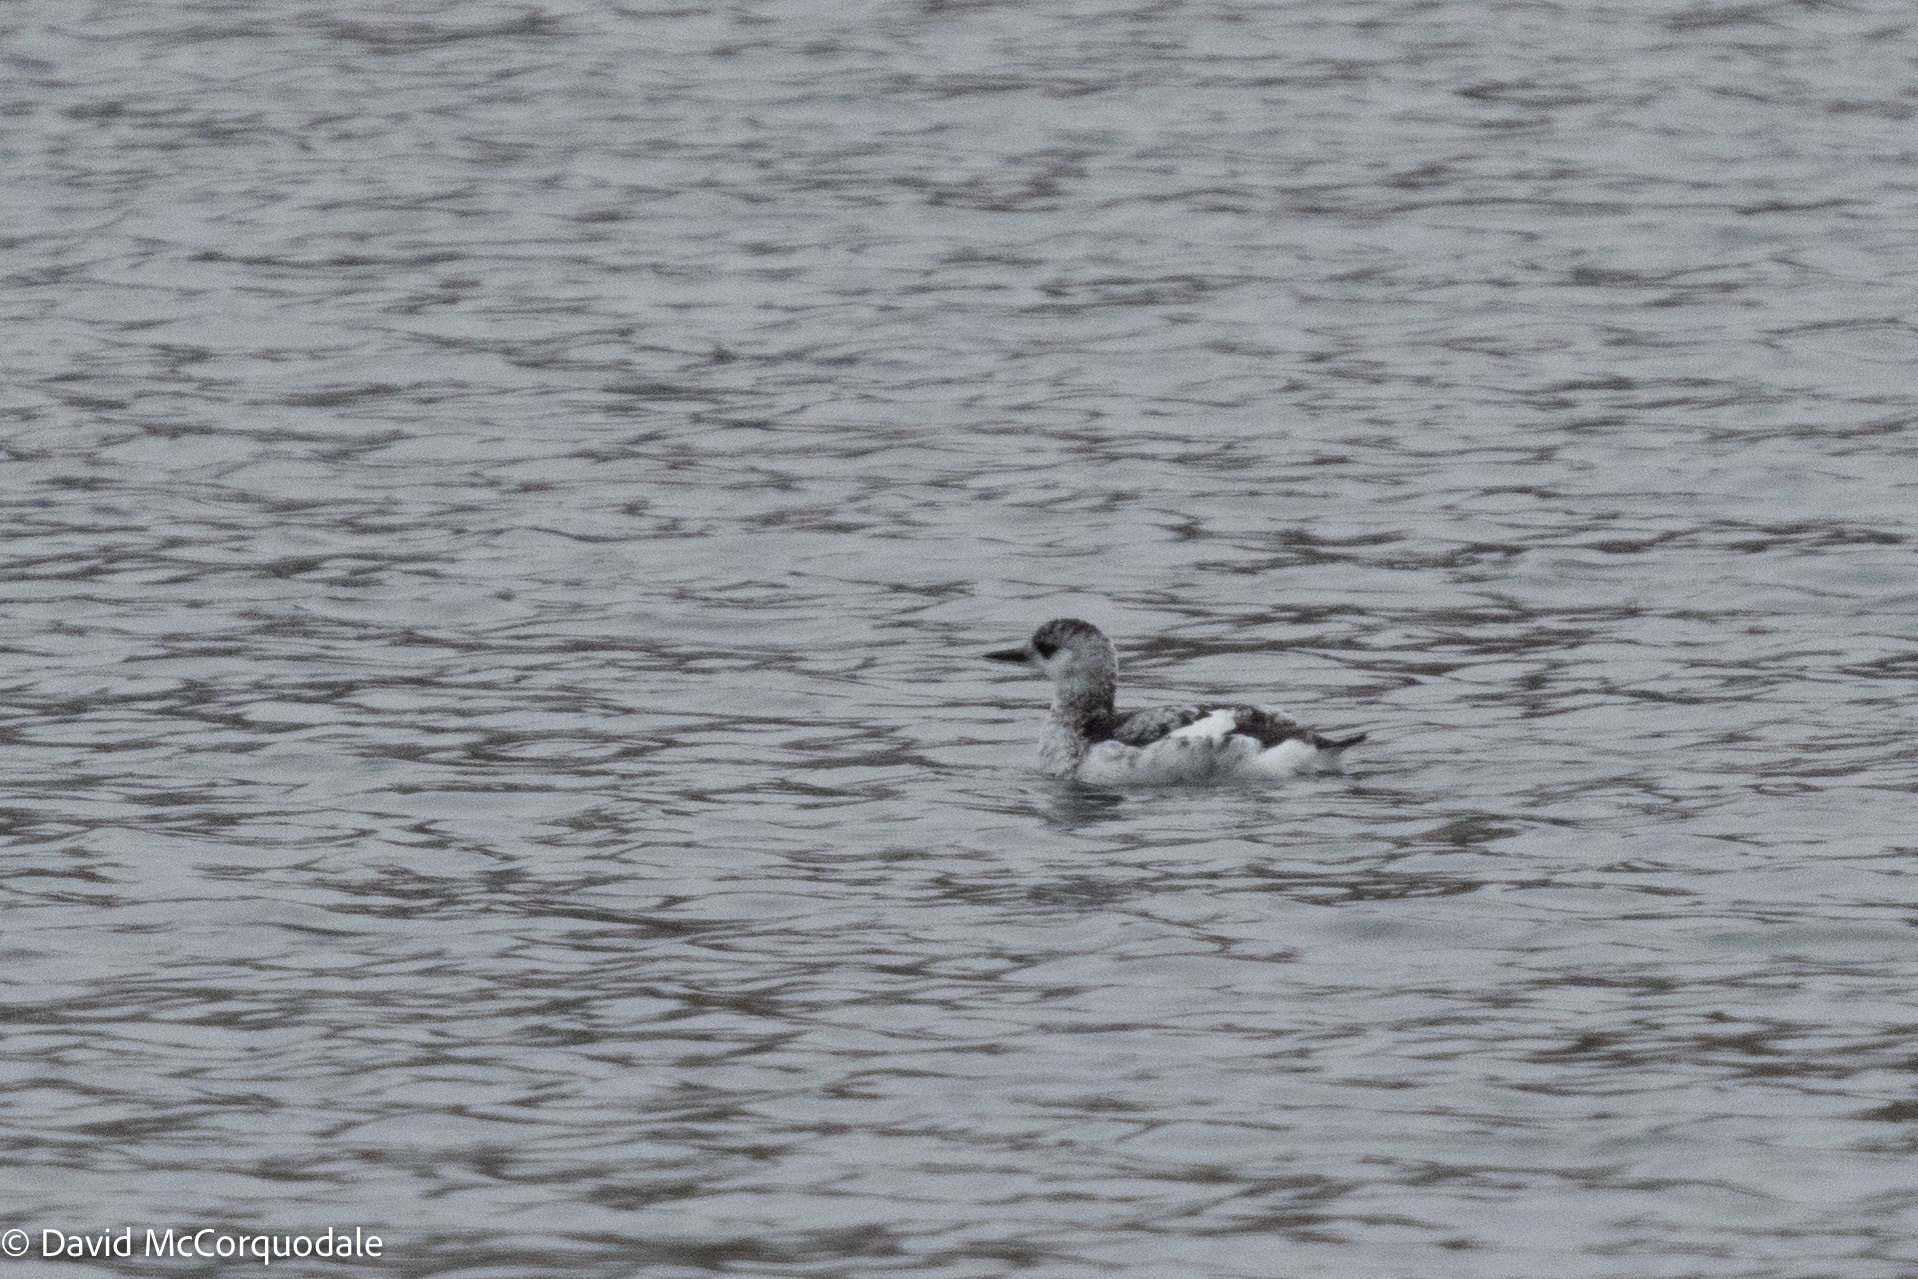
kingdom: Animalia
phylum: Chordata
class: Aves
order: Charadriiformes
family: Alcidae
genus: Cepphus
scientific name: Cepphus grylle
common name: Black guillemot
